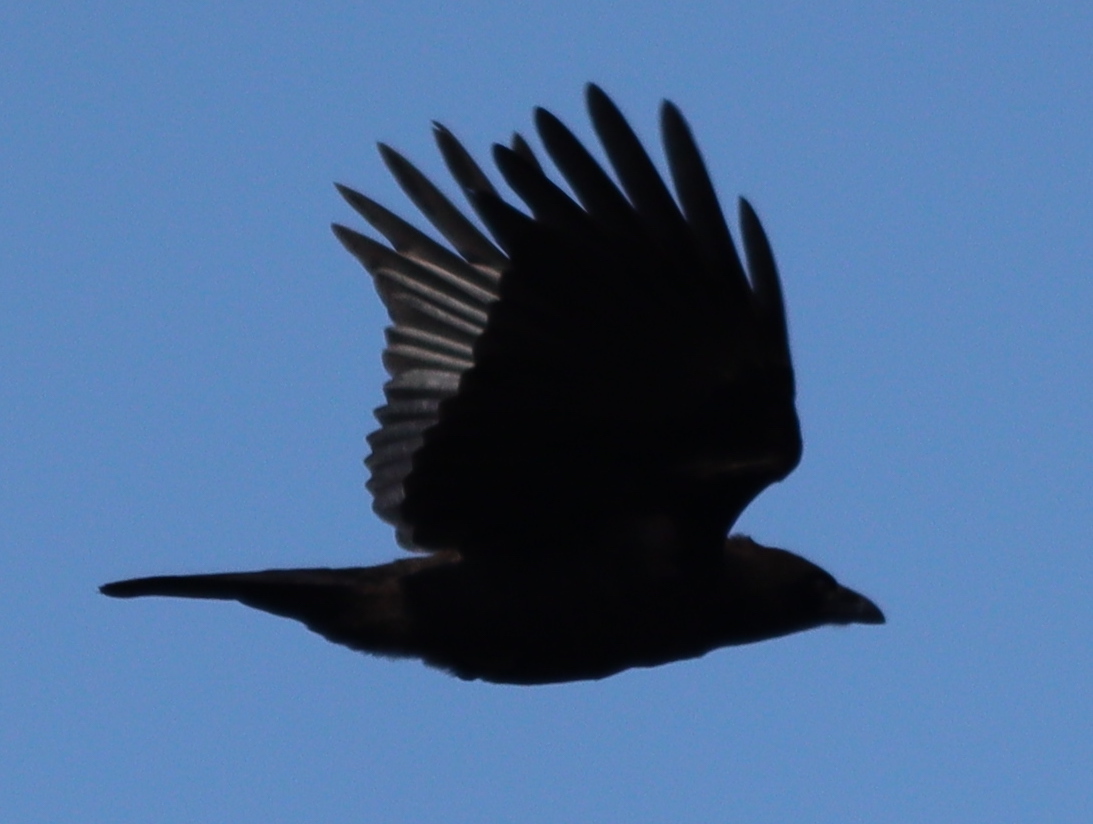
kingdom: Animalia
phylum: Chordata
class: Aves
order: Passeriformes
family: Corvidae
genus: Corvus
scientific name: Corvus corone
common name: Carrion crow
